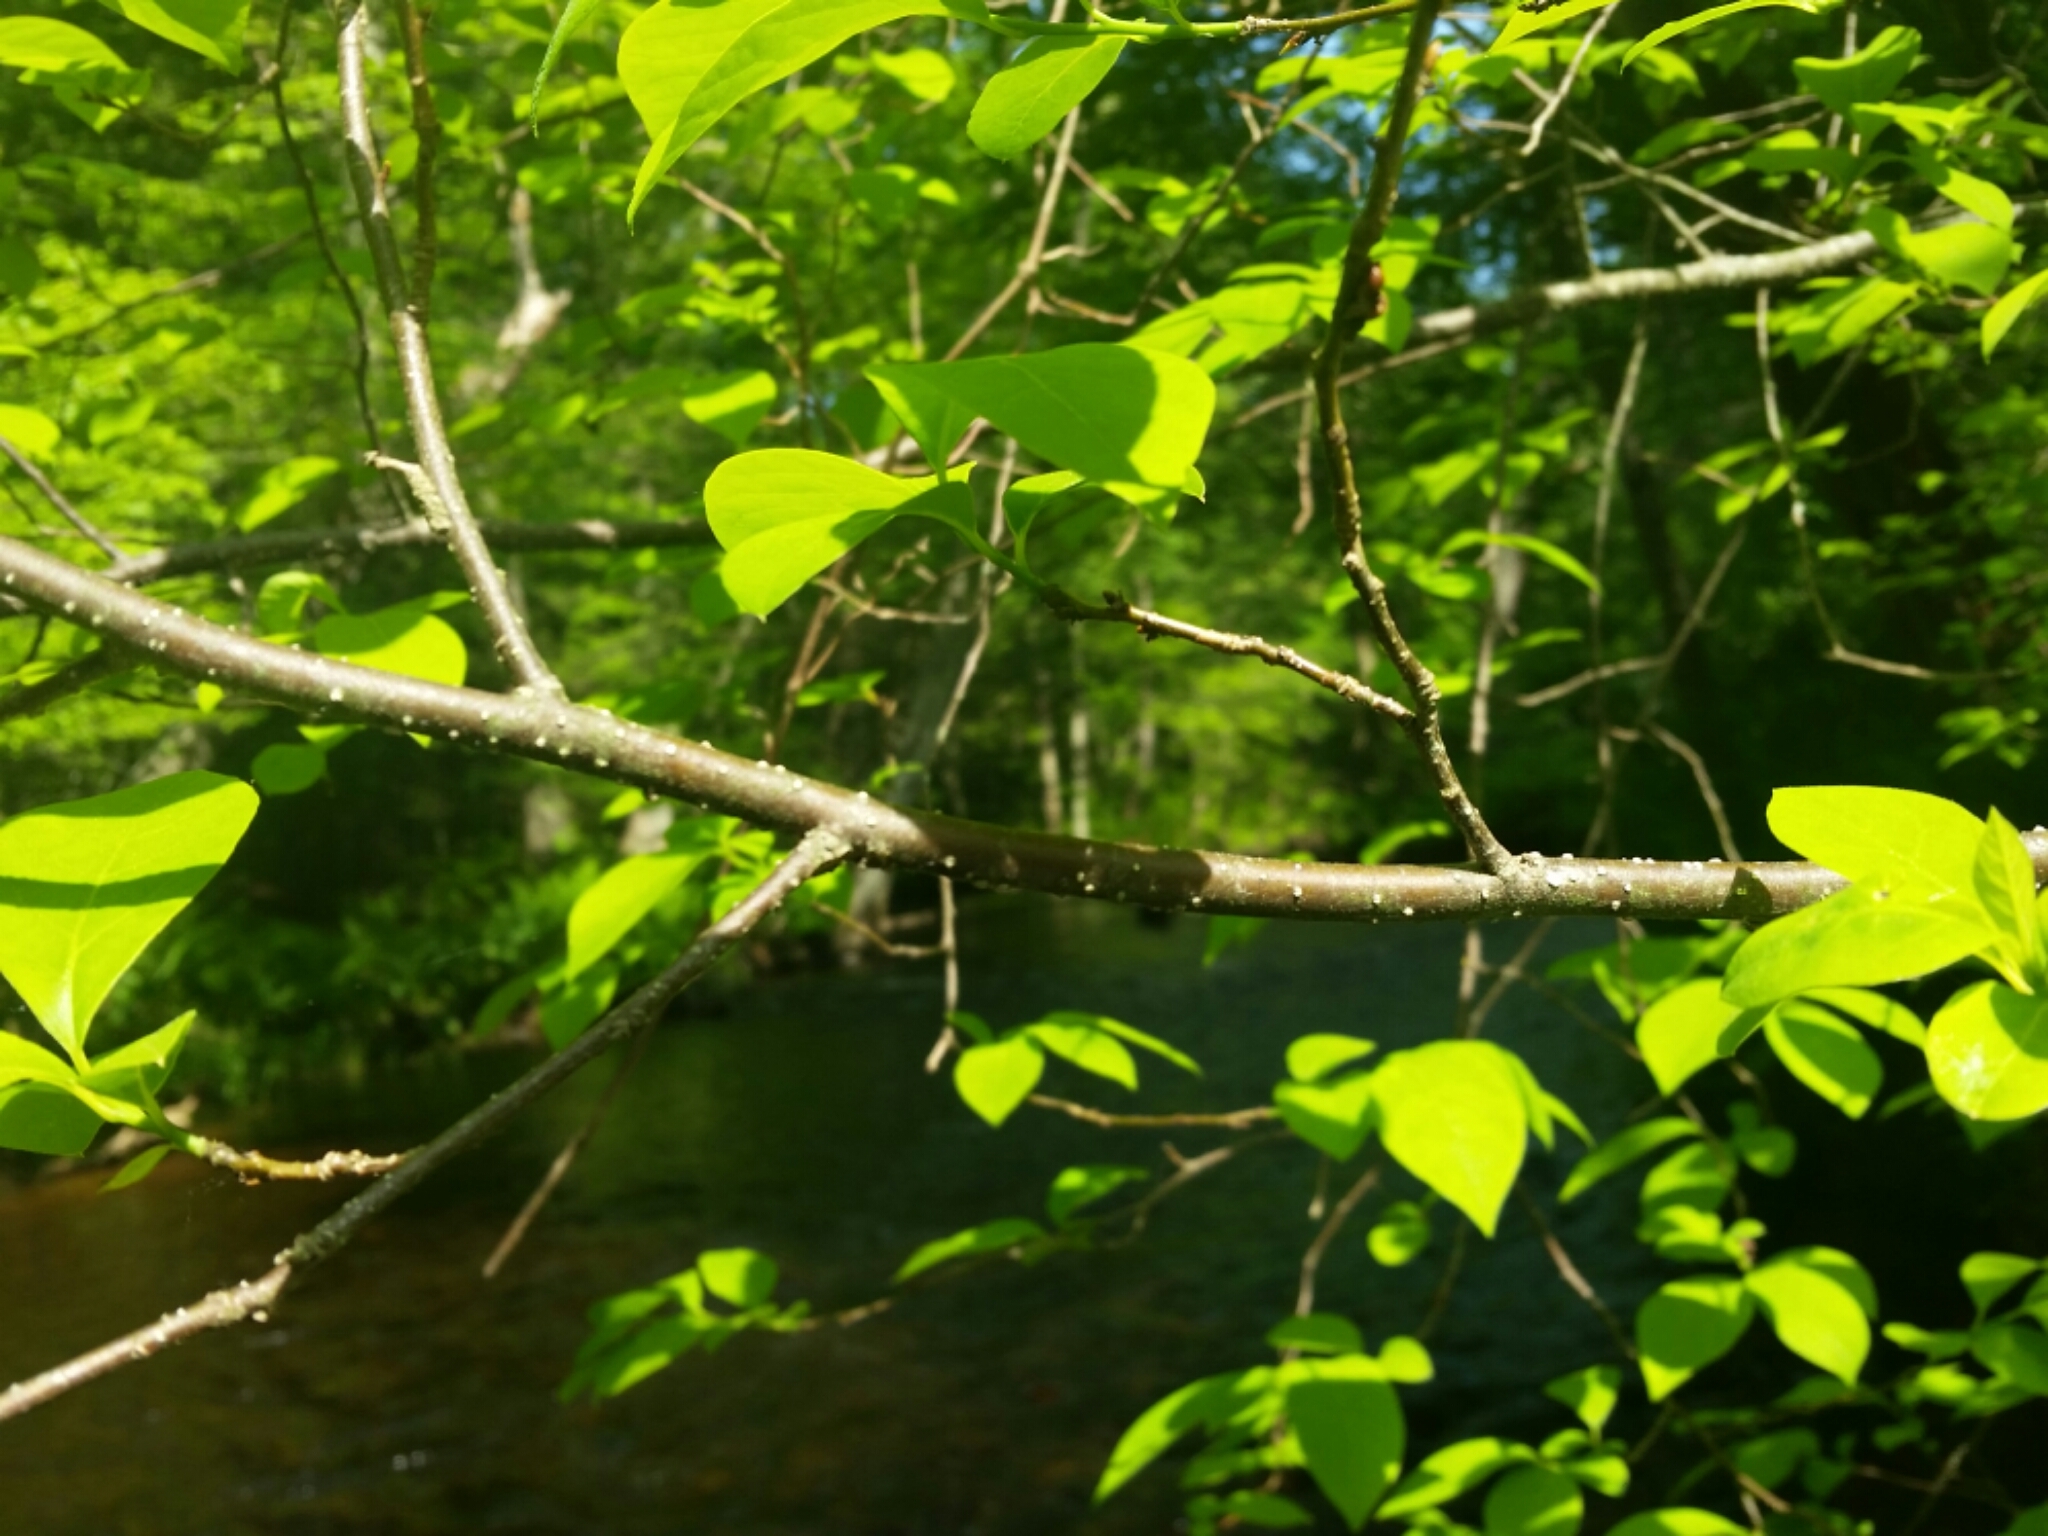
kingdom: Plantae
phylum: Tracheophyta
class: Magnoliopsida
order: Laurales
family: Lauraceae
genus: Lindera
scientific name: Lindera benzoin
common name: Spicebush
